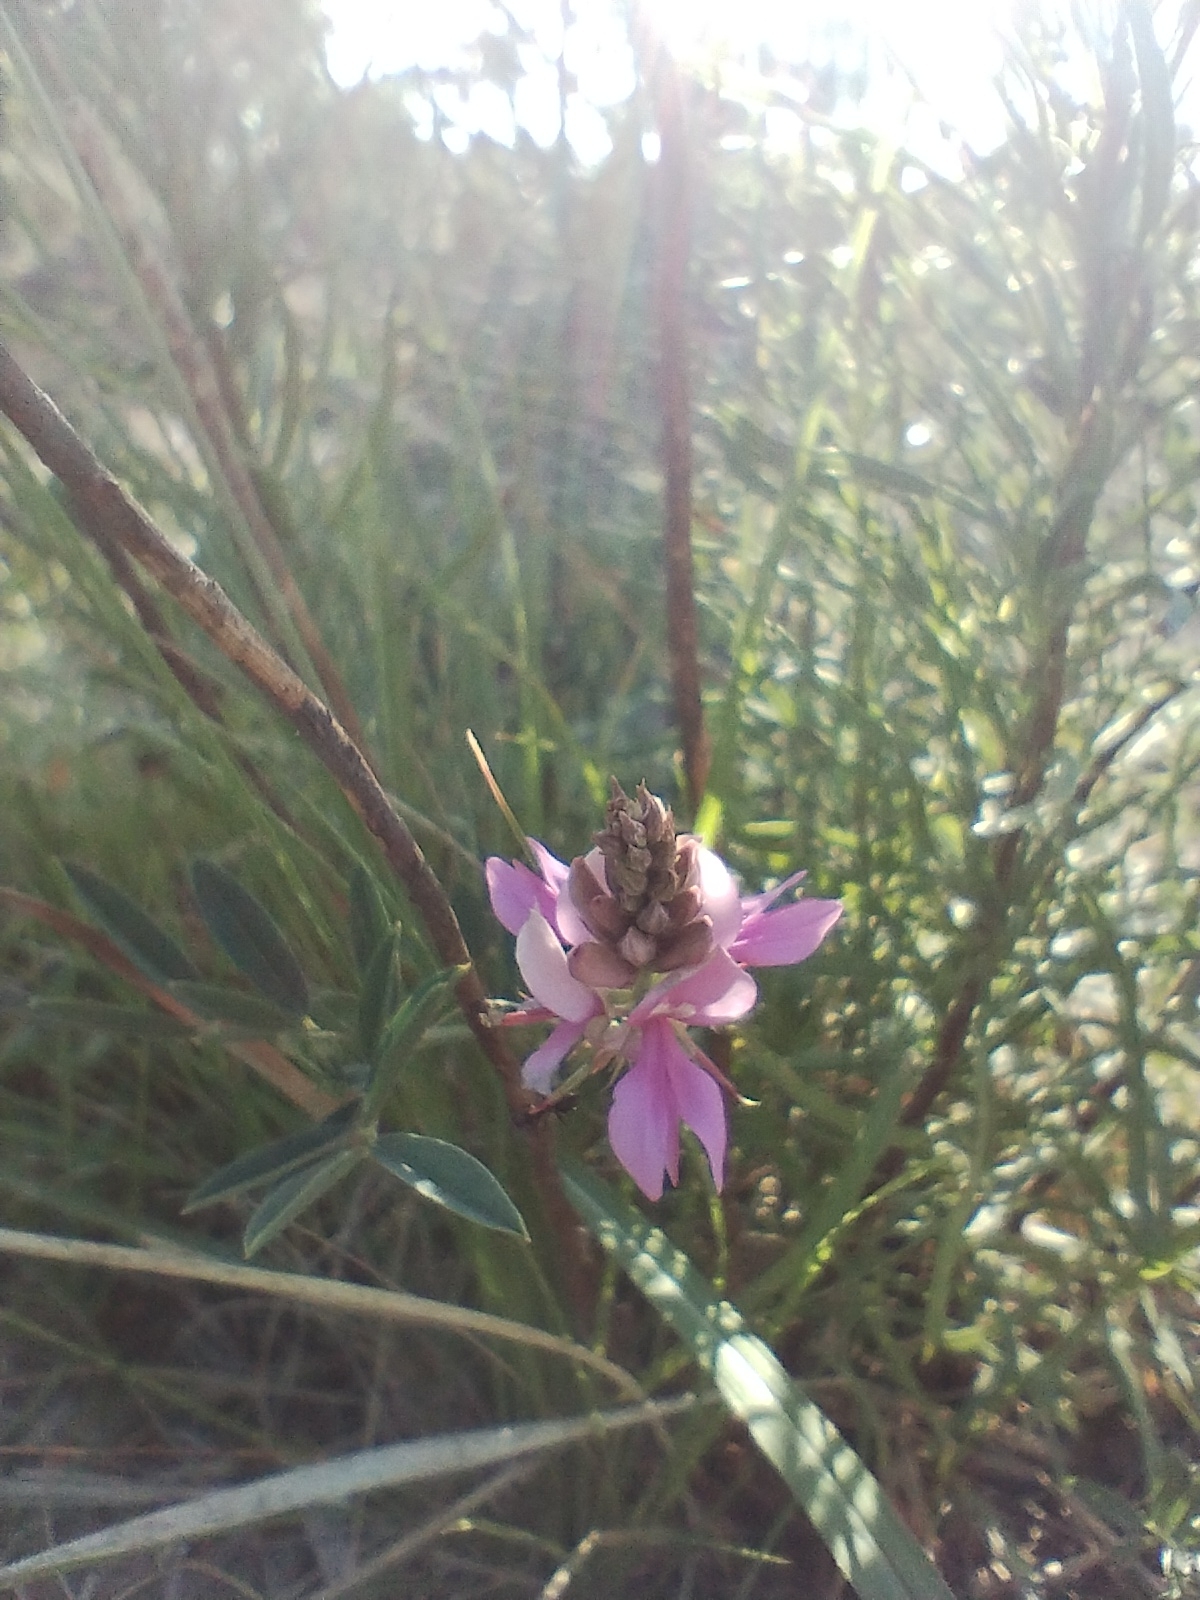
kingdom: Plantae
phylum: Tracheophyta
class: Magnoliopsida
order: Fabales
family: Fabaceae
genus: Indigofera
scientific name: Indigofera asperifolia
